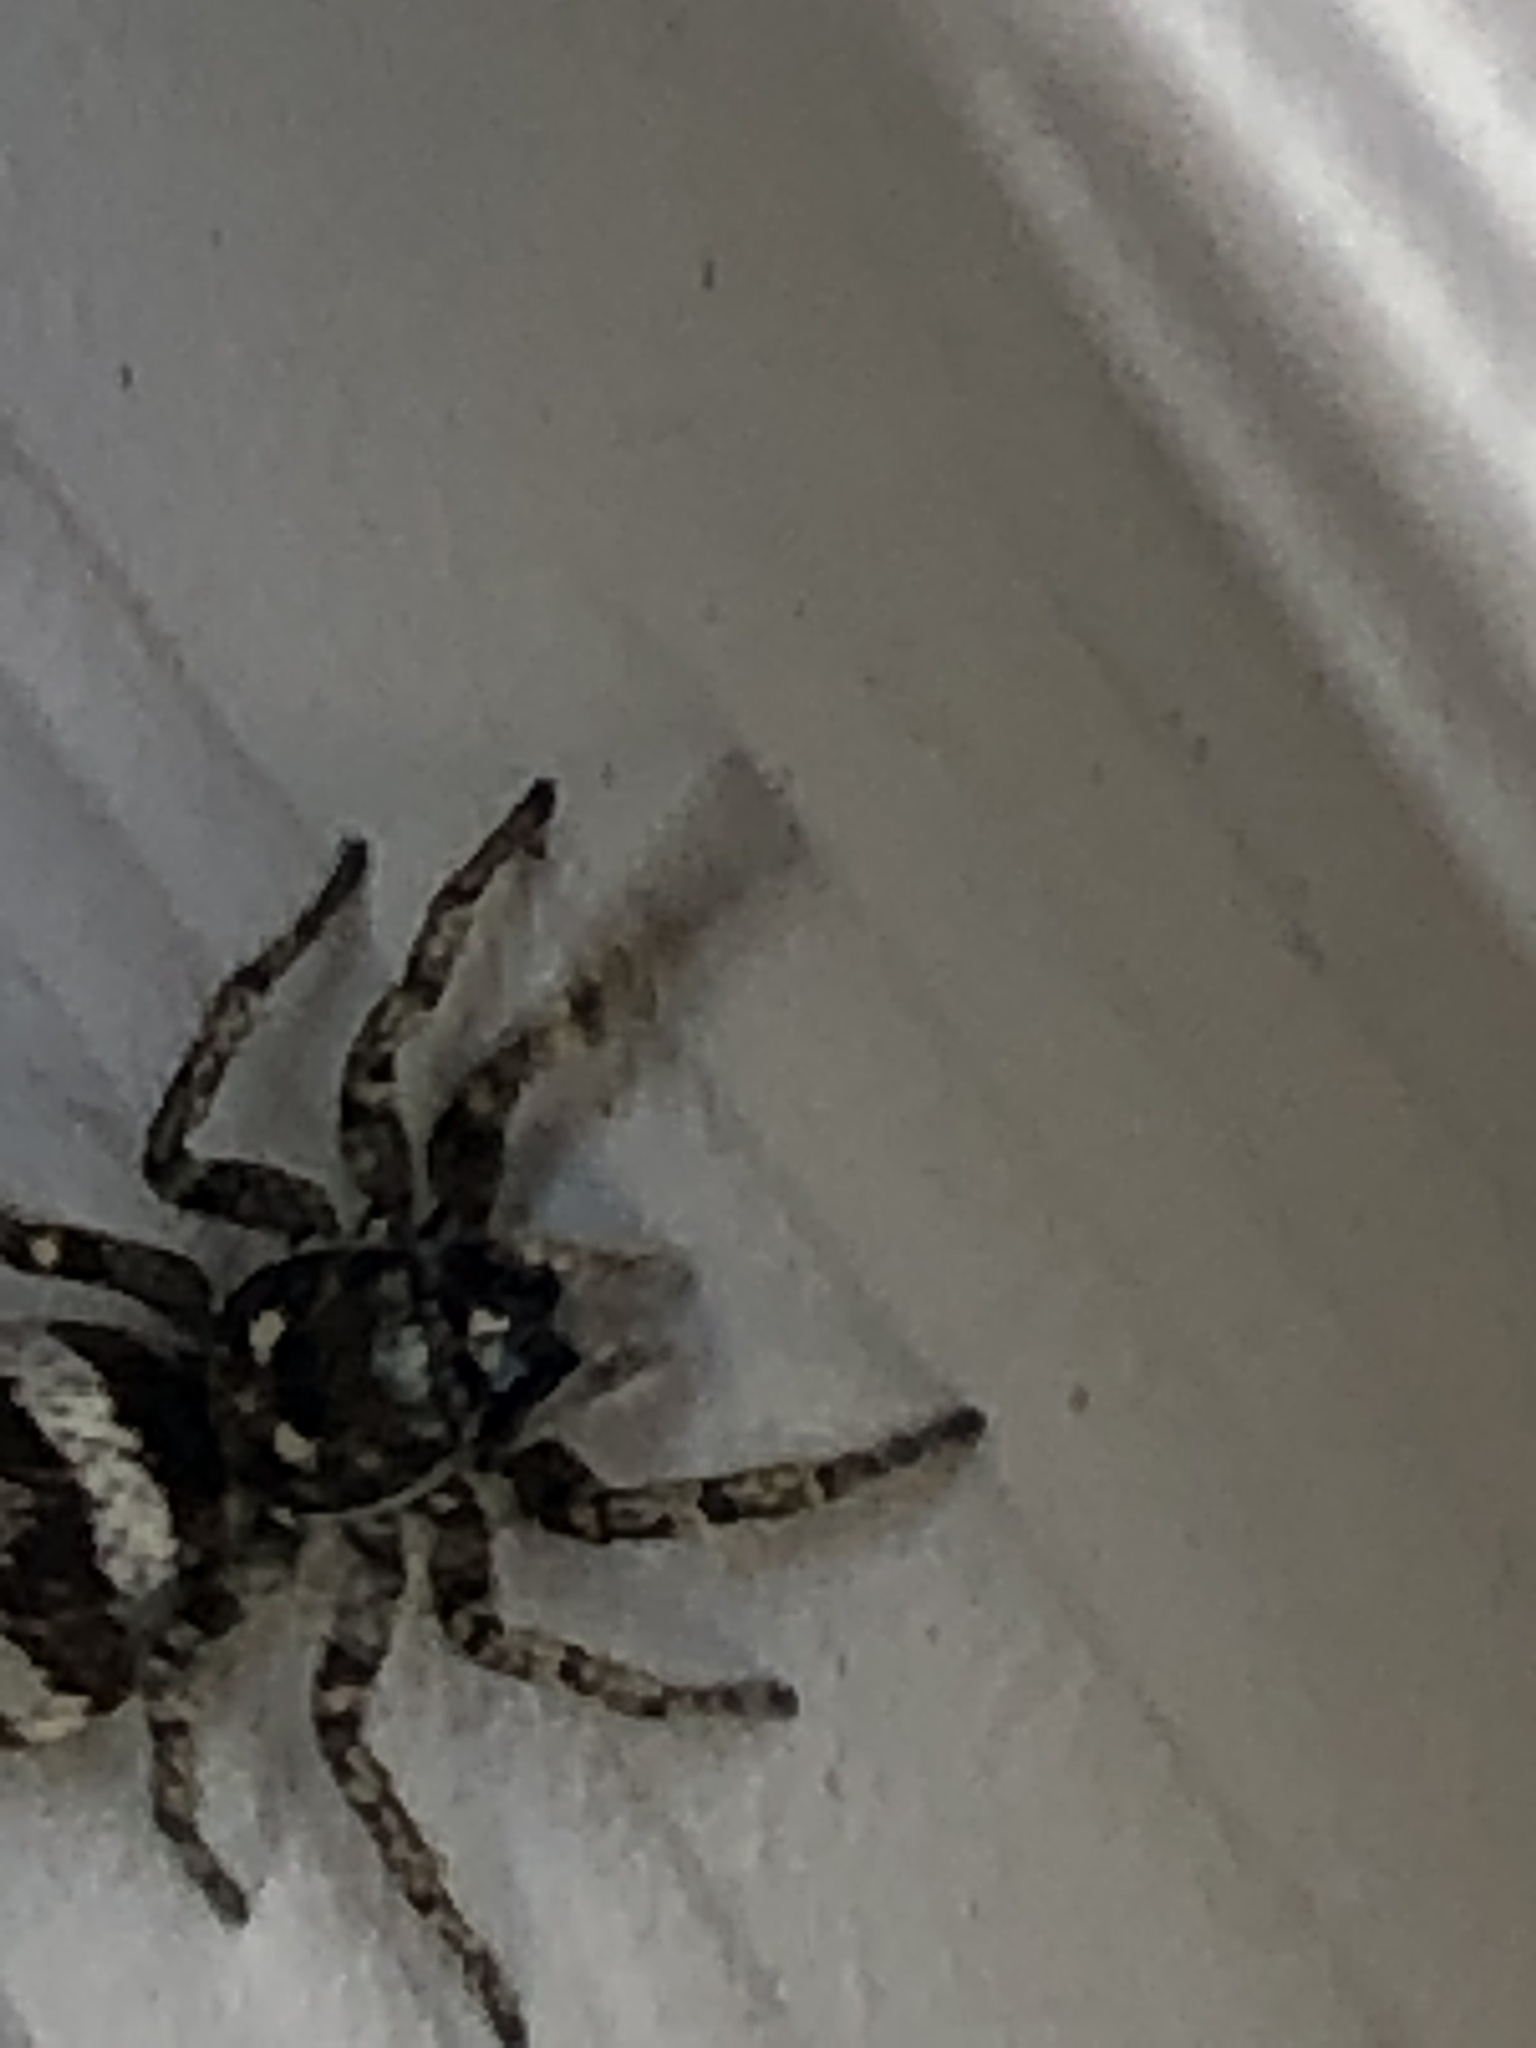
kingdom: Animalia
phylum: Arthropoda
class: Arachnida
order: Araneae
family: Salticidae
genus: Salticus
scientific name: Salticus scenicus
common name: Zebra jumper
